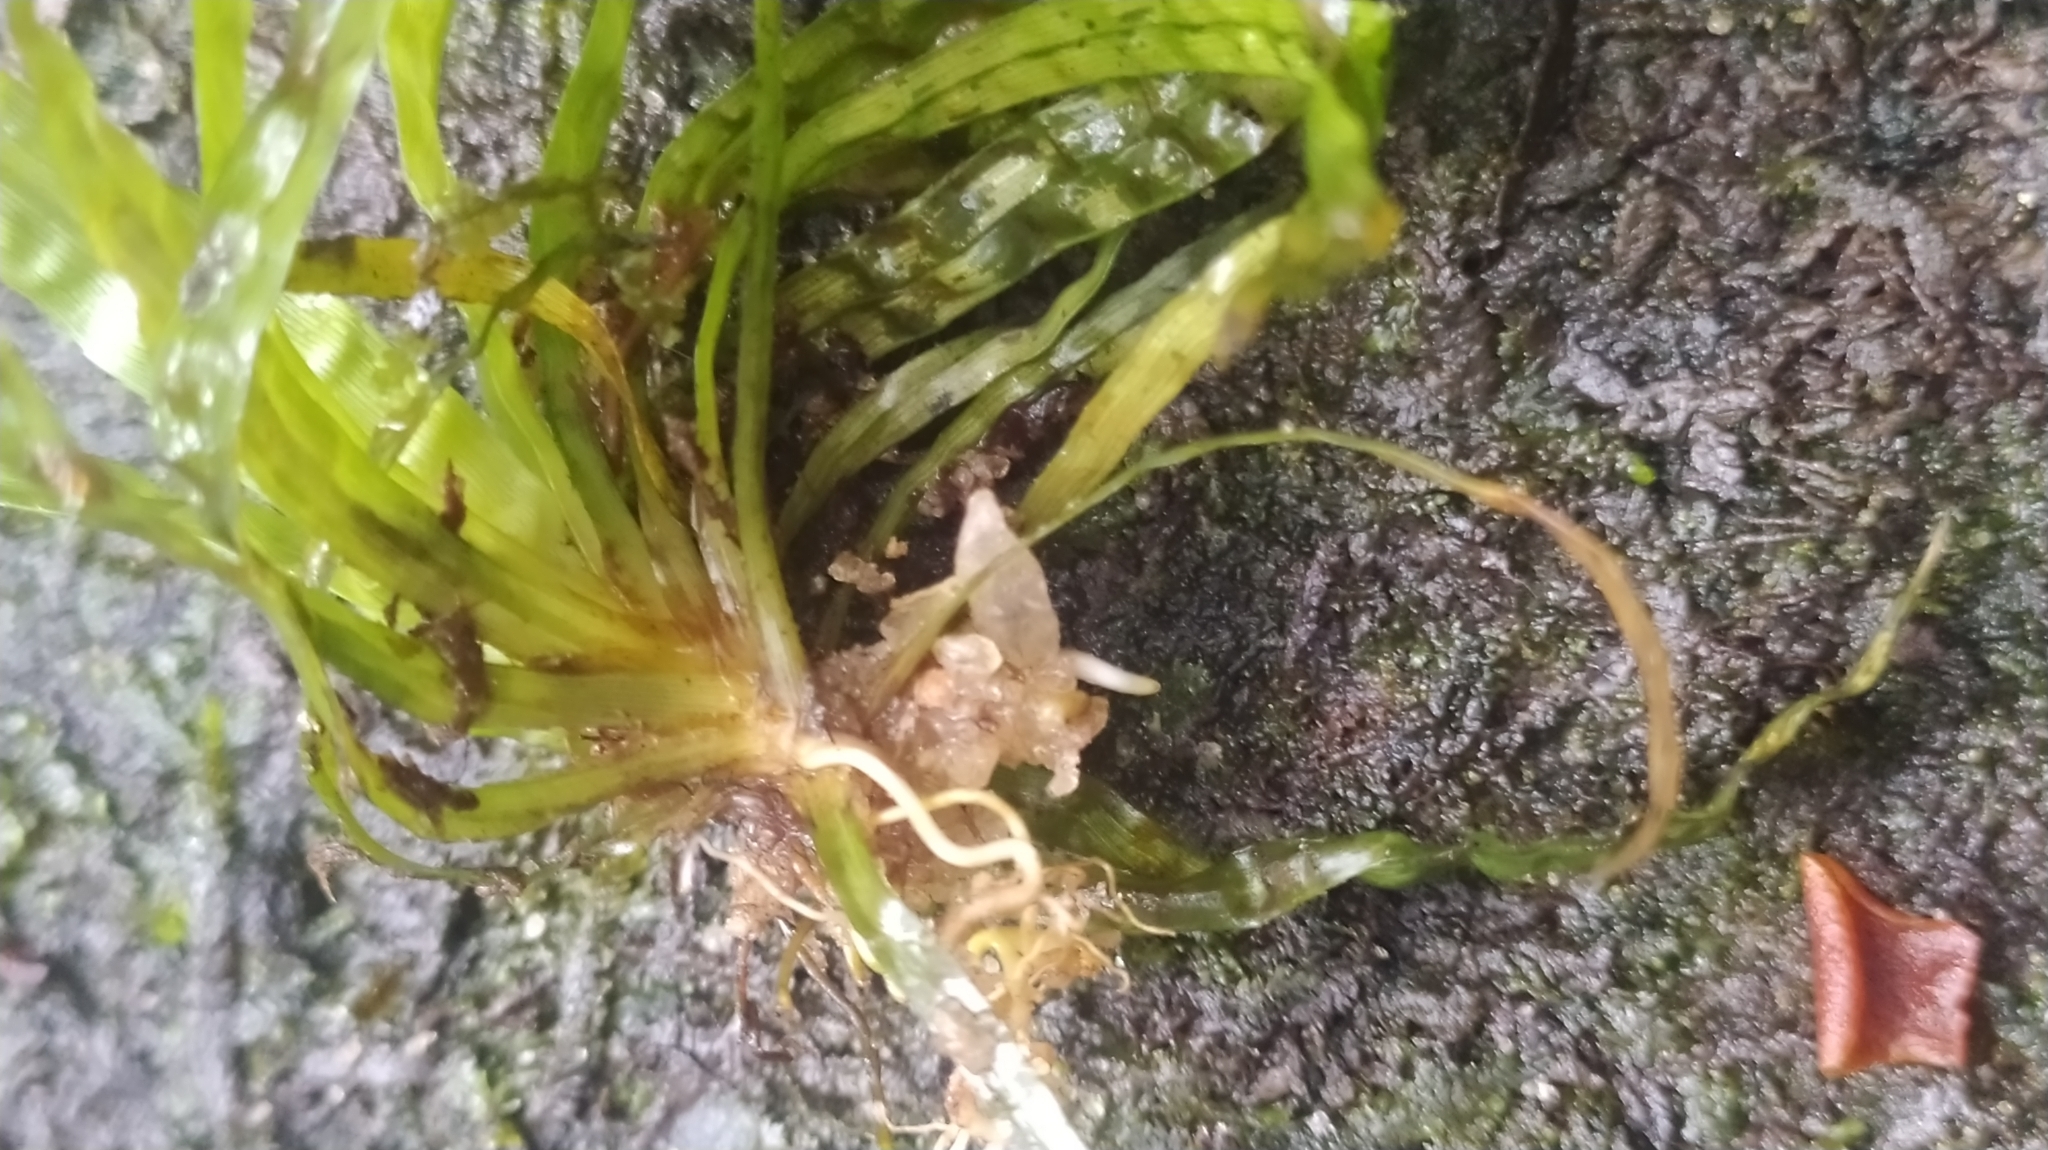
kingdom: Plantae
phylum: Tracheophyta
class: Liliopsida
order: Poales
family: Thurniaceae
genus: Thurnia
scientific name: Thurnia sphaerocephala
